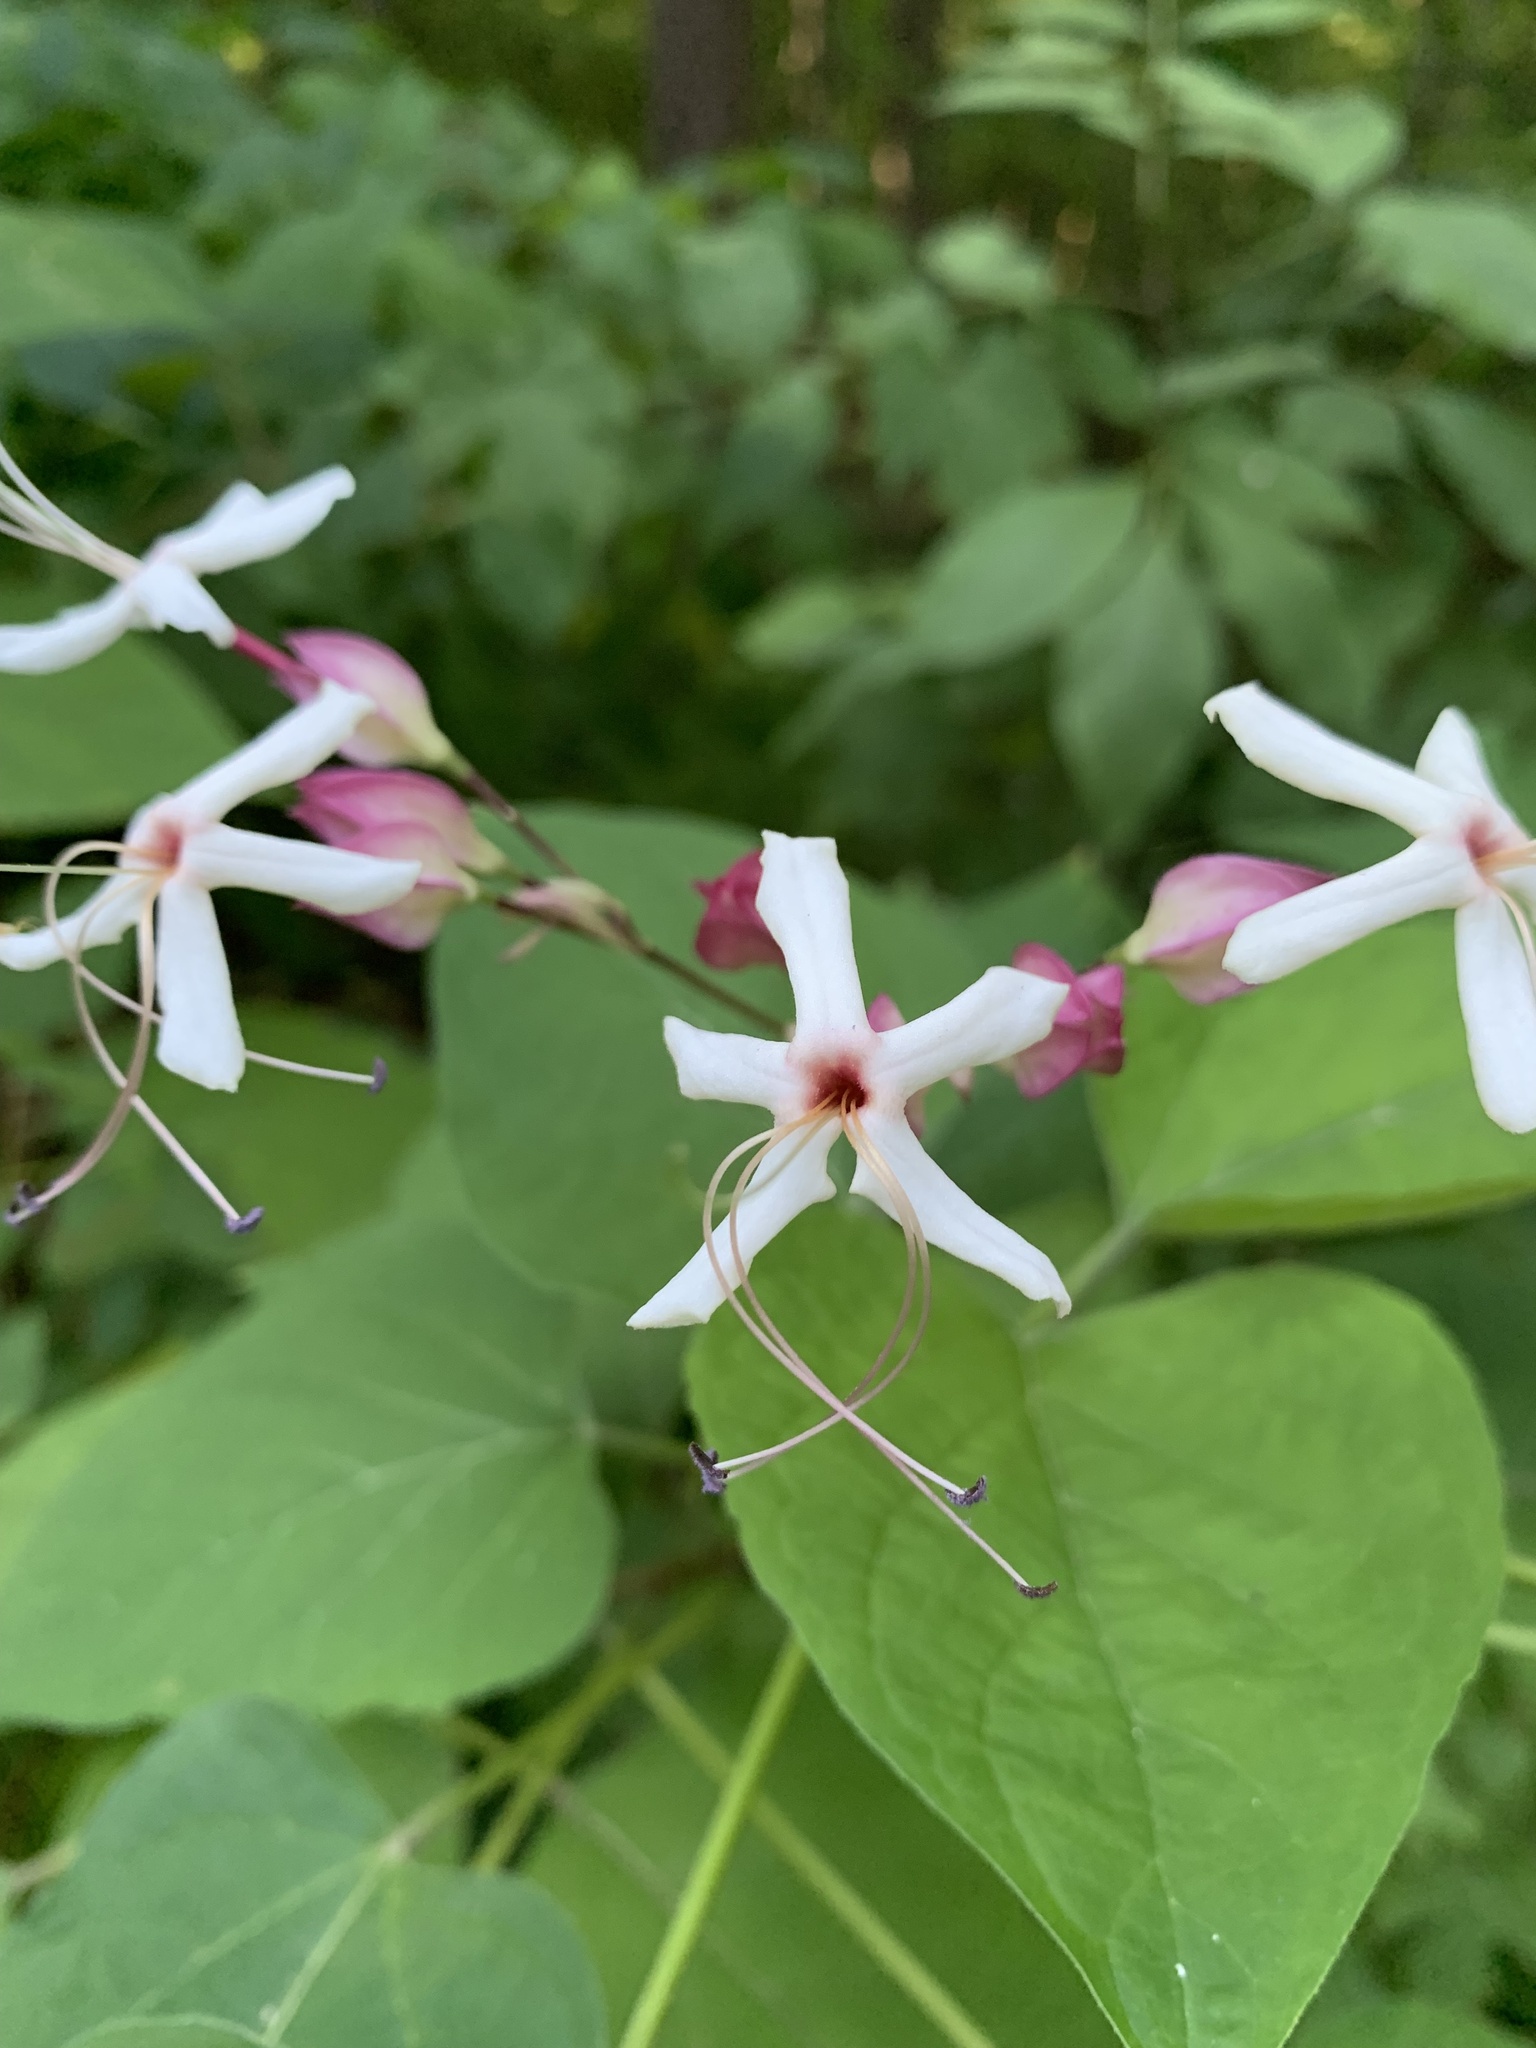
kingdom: Plantae
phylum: Tracheophyta
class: Magnoliopsida
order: Lamiales
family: Lamiaceae
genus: Clerodendrum
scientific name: Clerodendrum trichotomum
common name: Harlequin glorybower
